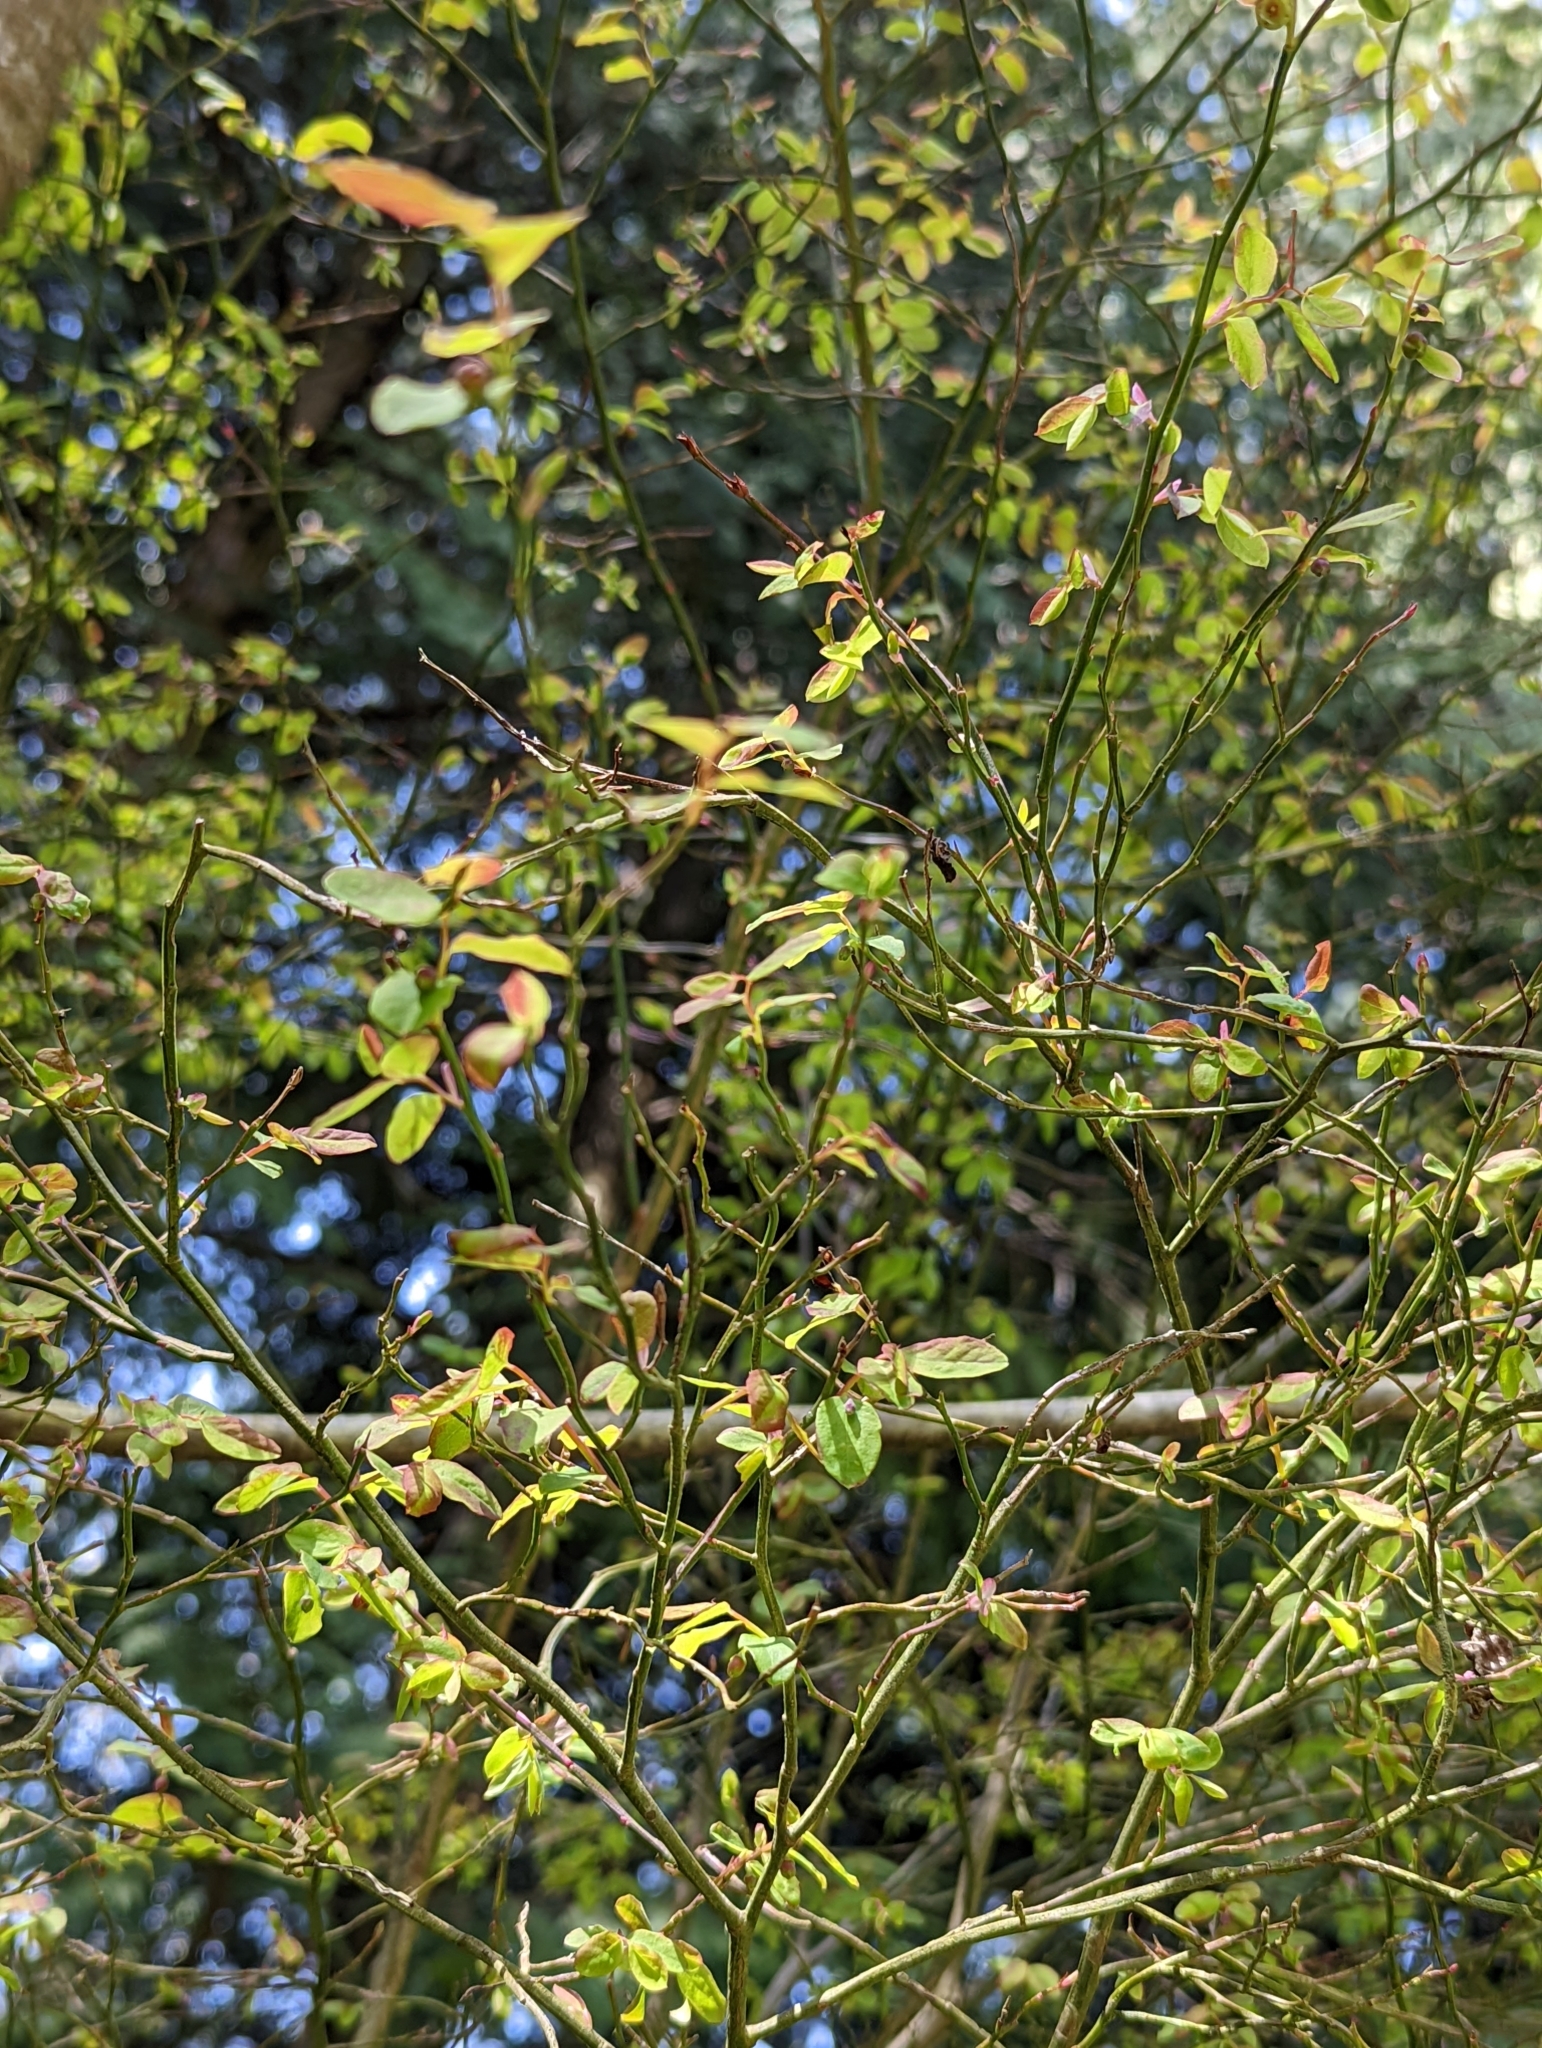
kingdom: Plantae
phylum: Tracheophyta
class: Magnoliopsida
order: Ericales
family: Ericaceae
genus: Vaccinium
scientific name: Vaccinium parvifolium
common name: Red-huckleberry
